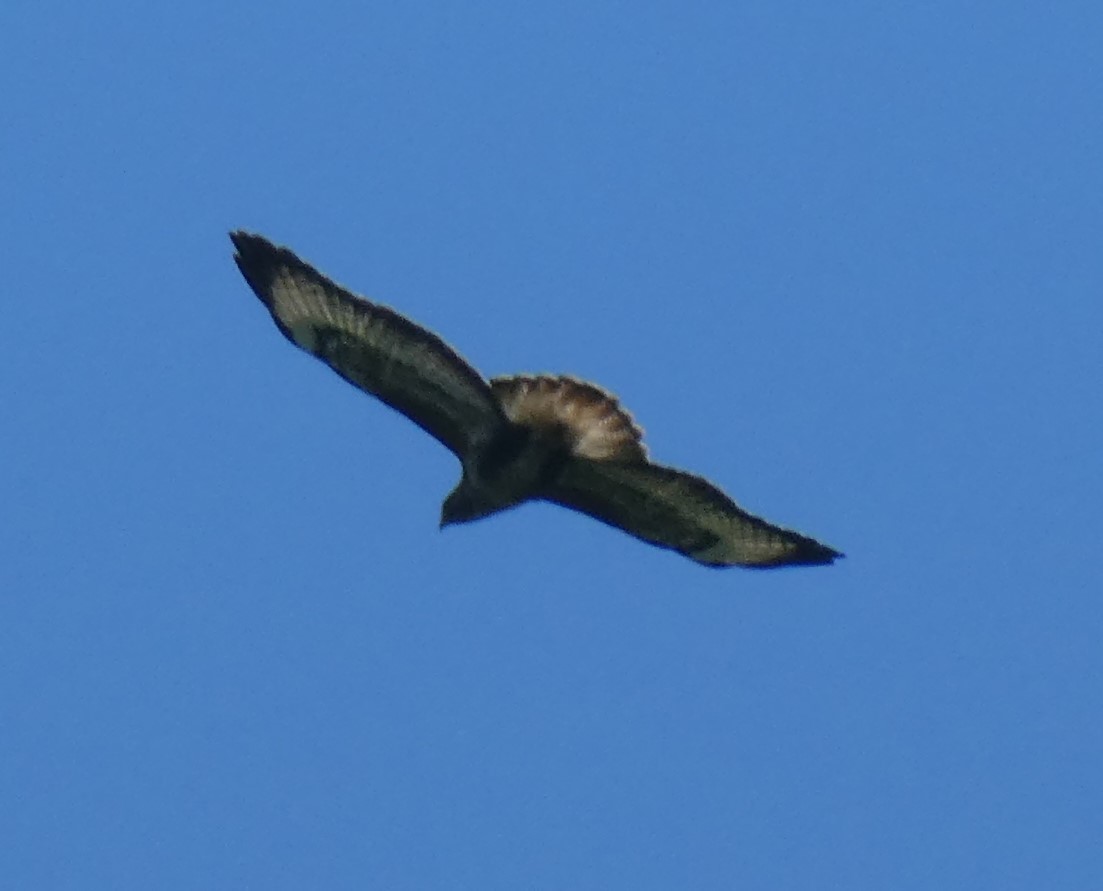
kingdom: Animalia
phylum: Chordata
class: Aves
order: Accipitriformes
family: Accipitridae
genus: Buteo
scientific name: Buteo buteo
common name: Common buzzard
